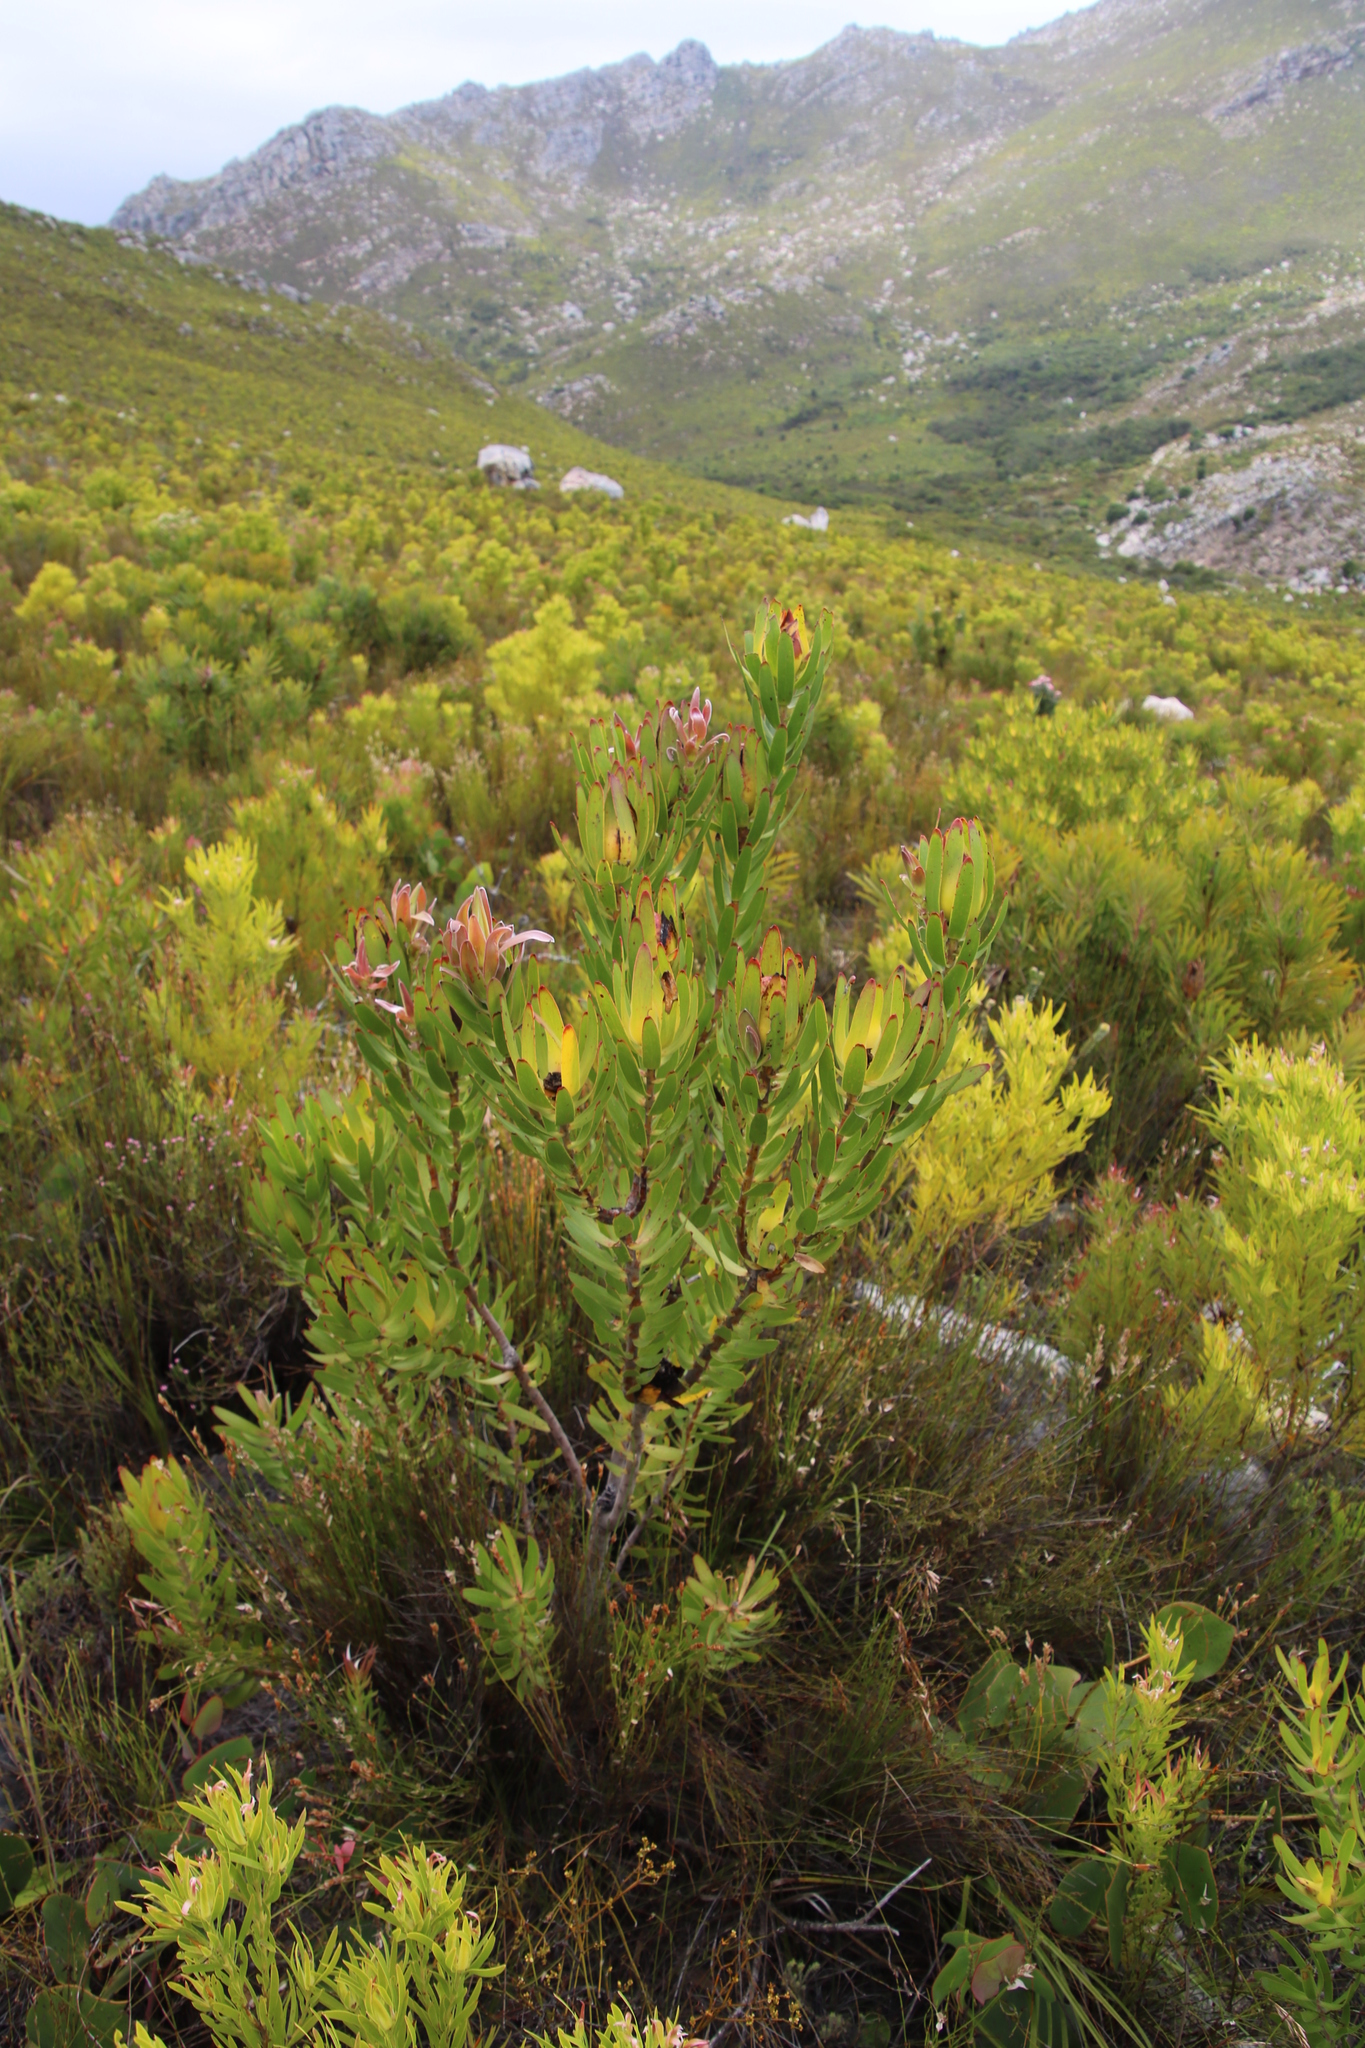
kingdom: Plantae
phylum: Tracheophyta
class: Magnoliopsida
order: Proteales
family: Proteaceae
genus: Leucadendron
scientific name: Leucadendron laureolum
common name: Golden sunshinebush
